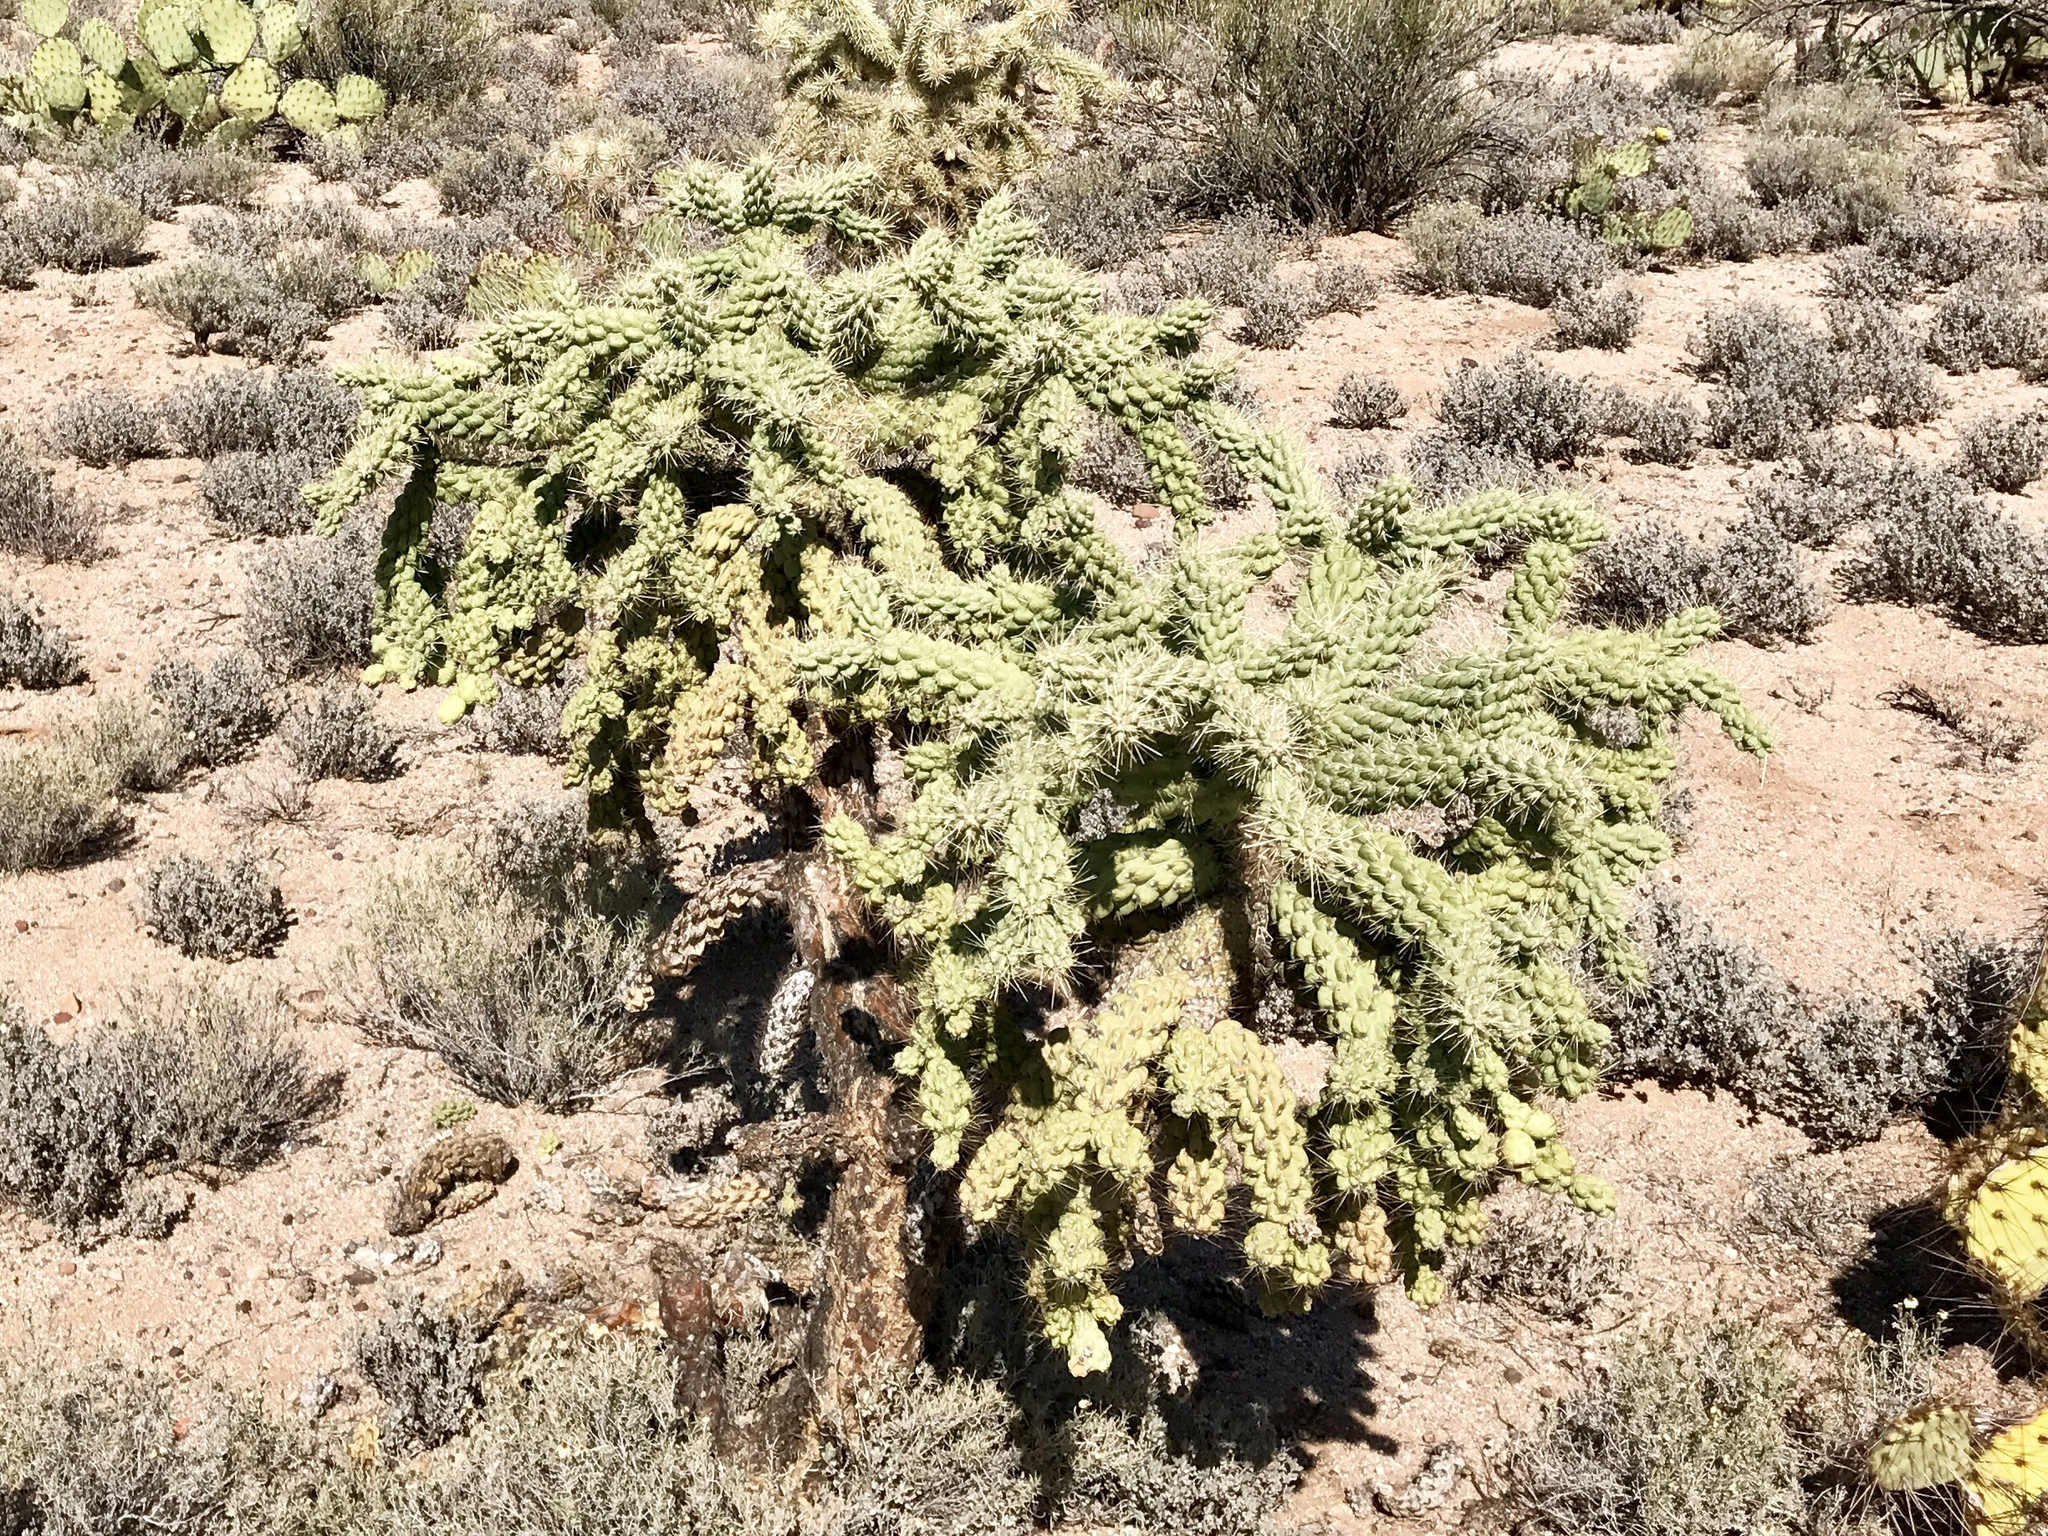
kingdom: Plantae
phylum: Tracheophyta
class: Magnoliopsida
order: Caryophyllales
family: Cactaceae
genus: Cylindropuntia
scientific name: Cylindropuntia fulgida
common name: Jumping cholla
